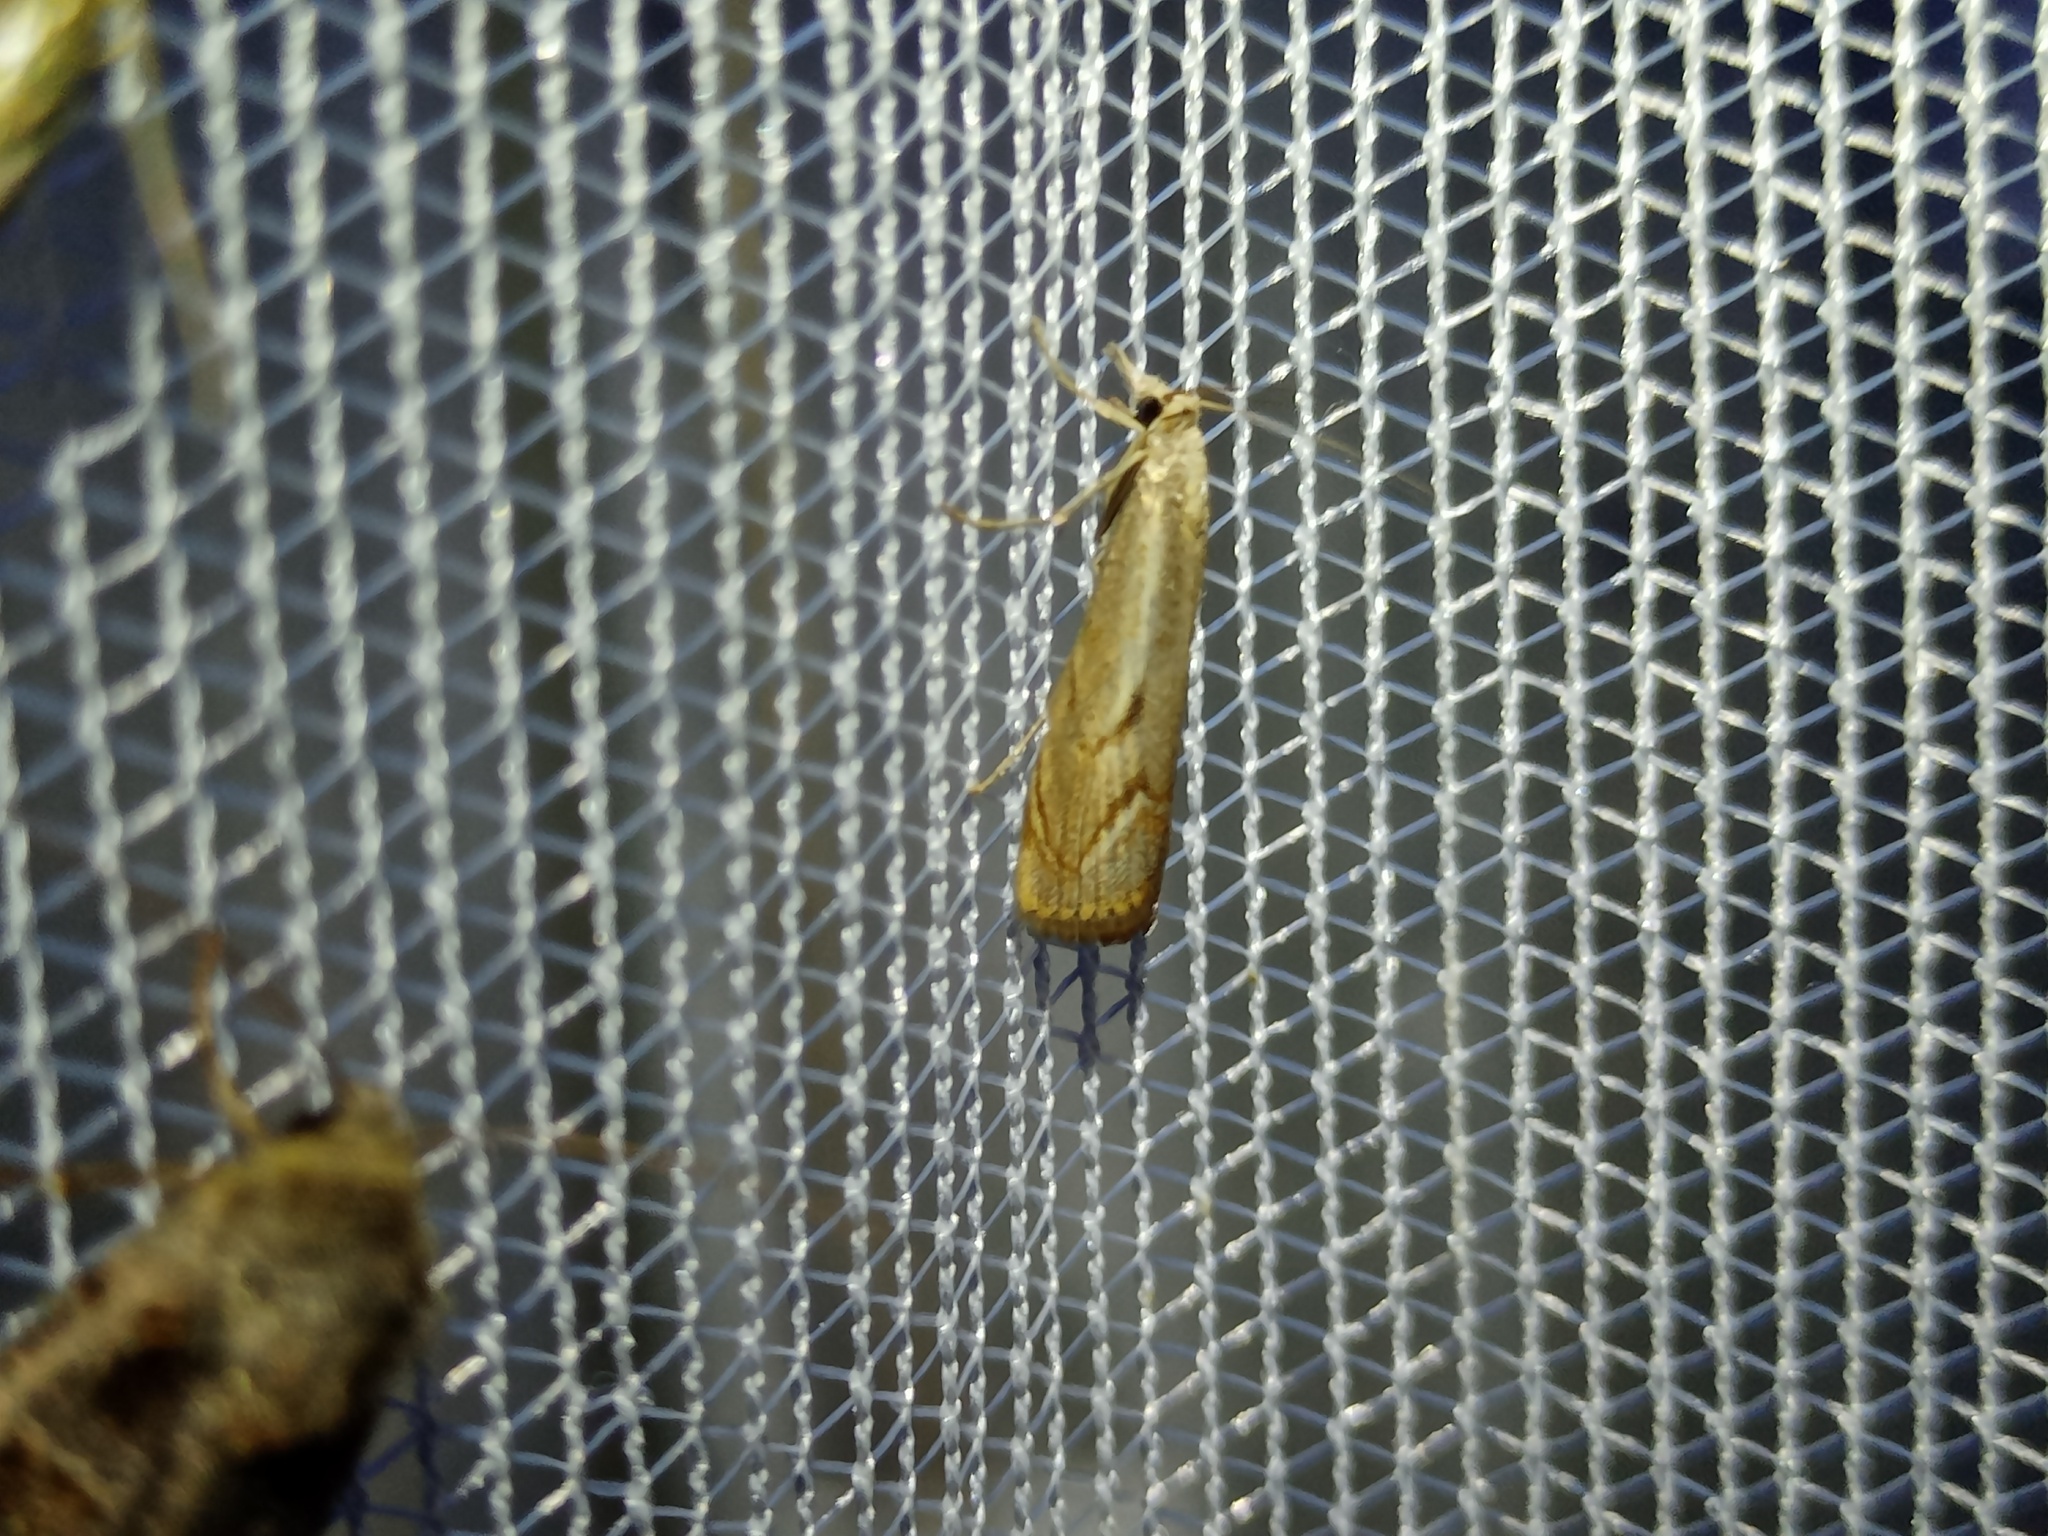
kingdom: Animalia
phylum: Arthropoda
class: Insecta
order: Lepidoptera
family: Crambidae
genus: Agriphila
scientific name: Agriphila geniculea
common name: Elbow-stripe grass-veneer
